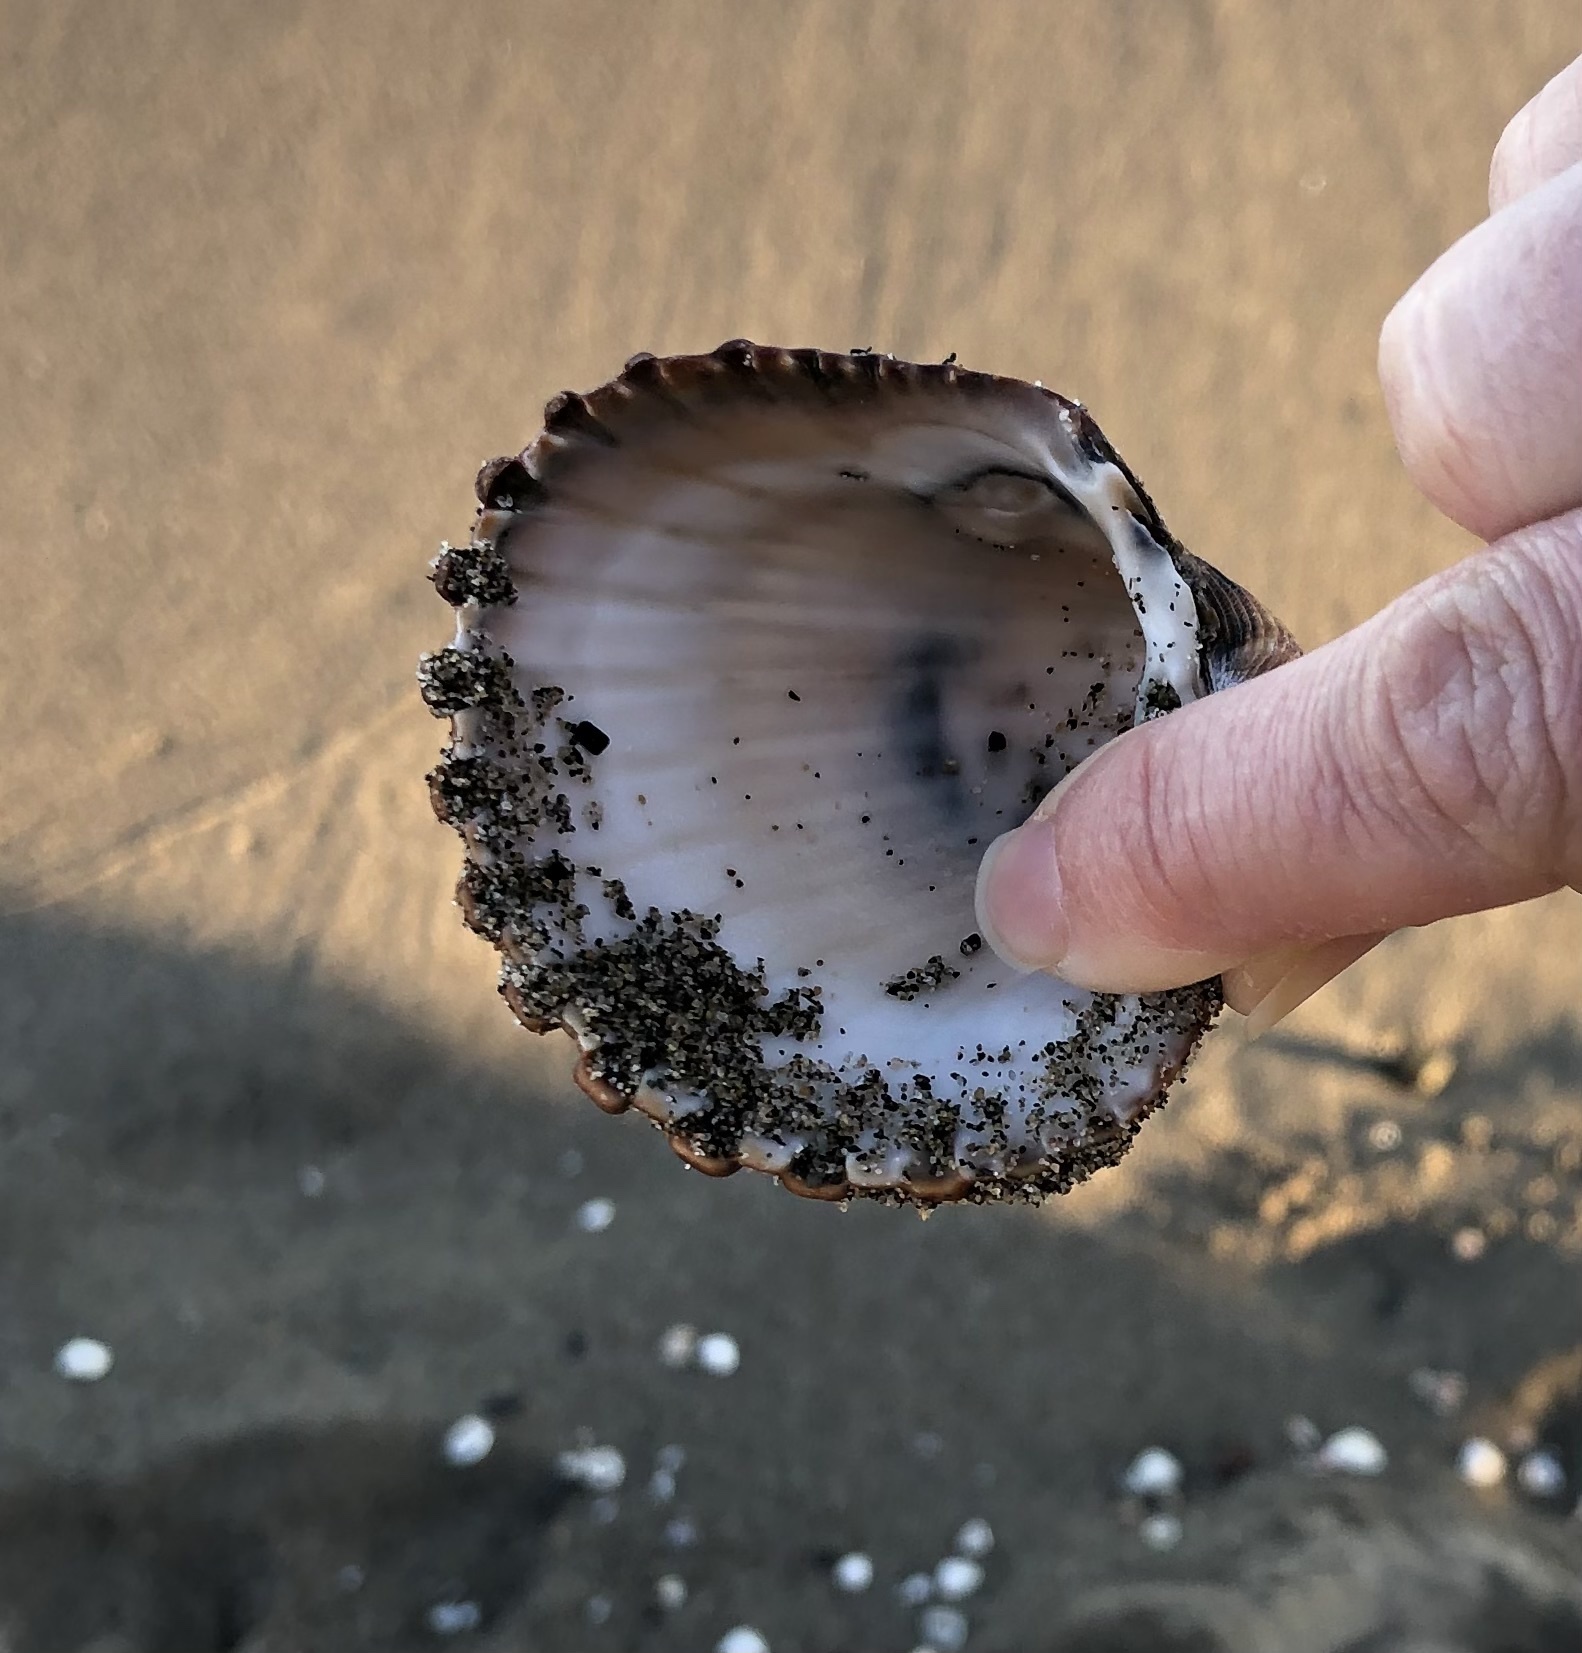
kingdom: Animalia
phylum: Mollusca
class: Bivalvia
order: Cardiida
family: Cardiidae
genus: Acanthocardia
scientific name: Acanthocardia tuberculata
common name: Rough cockle
